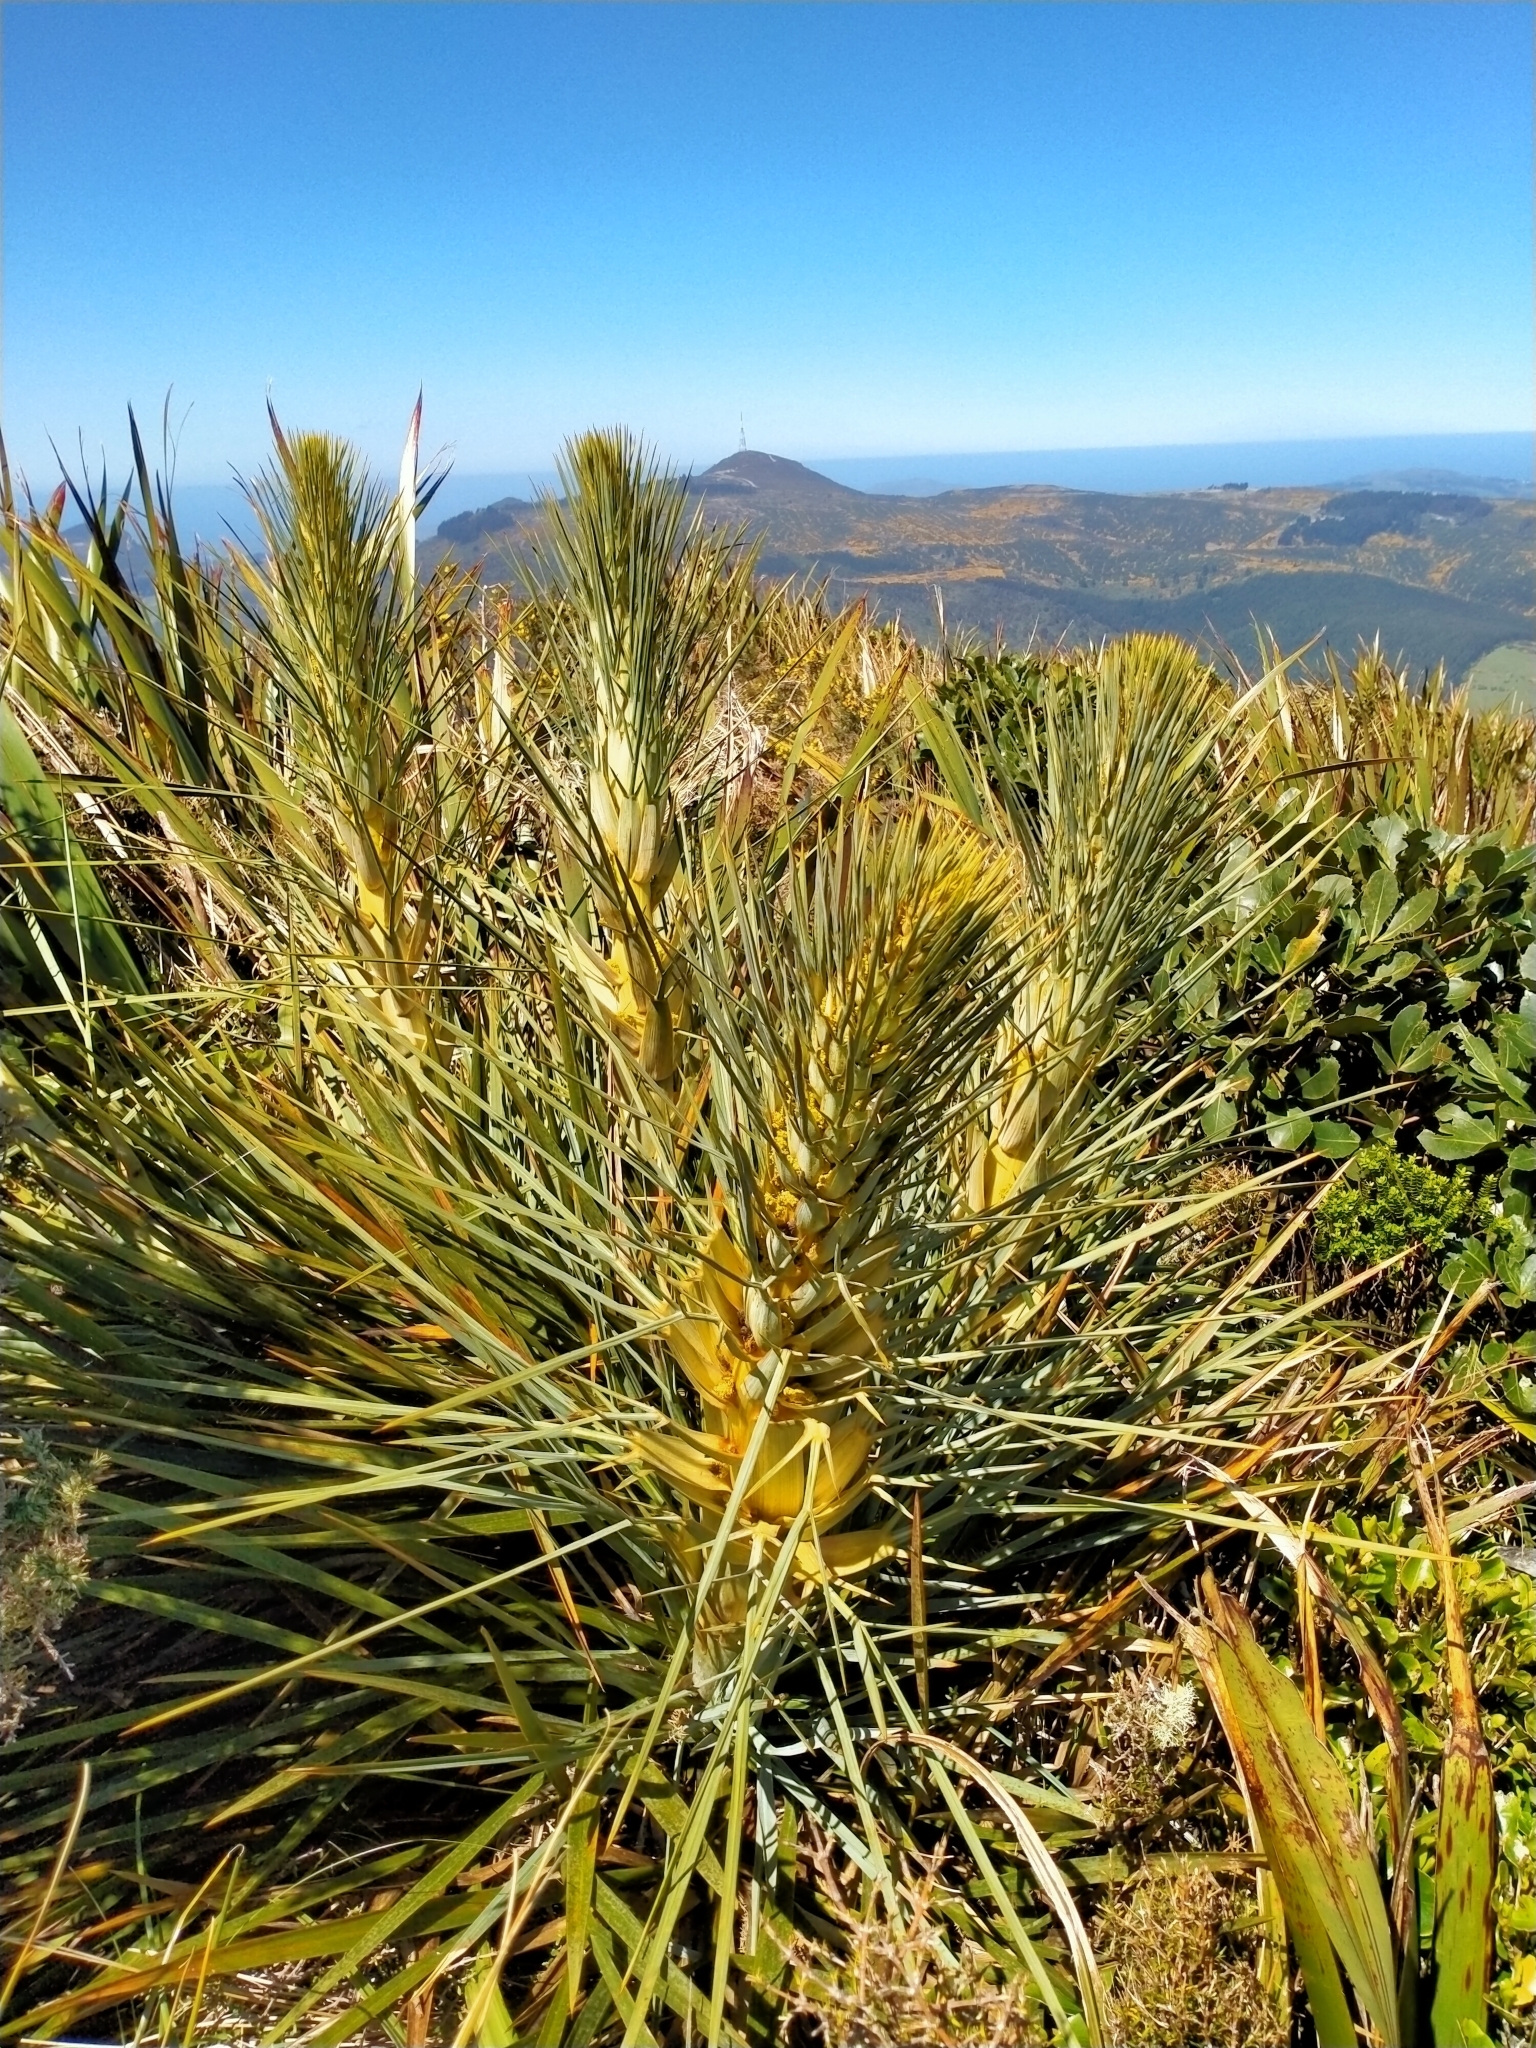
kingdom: Plantae
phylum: Tracheophyta
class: Magnoliopsida
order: Apiales
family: Apiaceae
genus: Aciphylla
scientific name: Aciphylla scott-thomsonii
